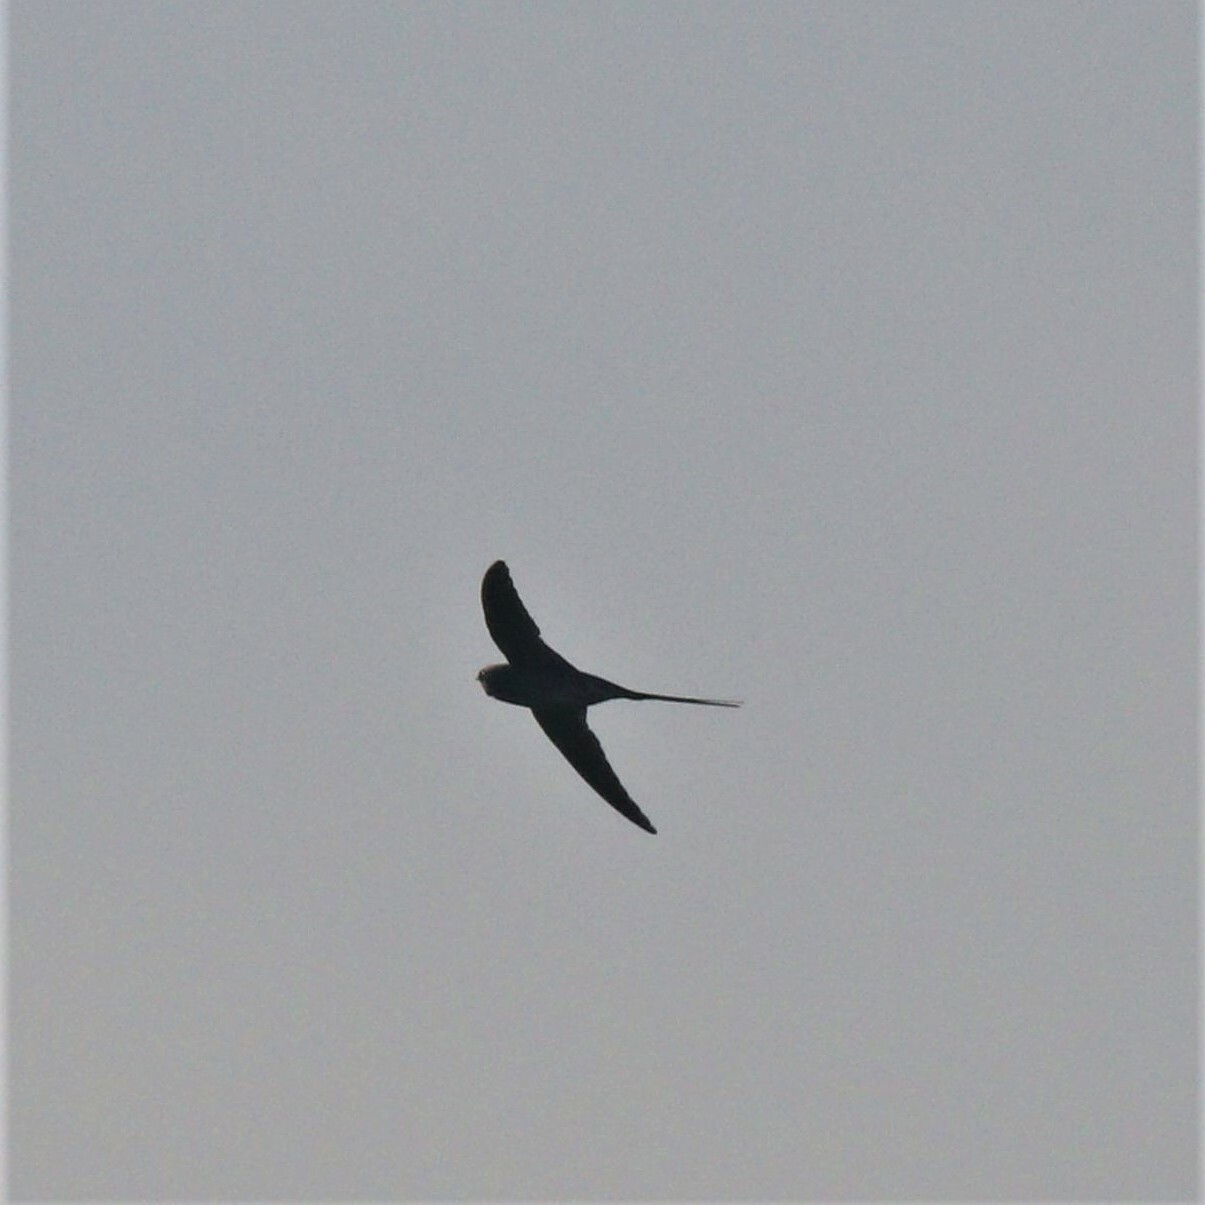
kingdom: Animalia
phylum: Chordata
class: Aves
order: Apodiformes
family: Hemiprocnidae
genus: Hemiprocne
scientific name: Hemiprocne coronata
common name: Crested treeswift
